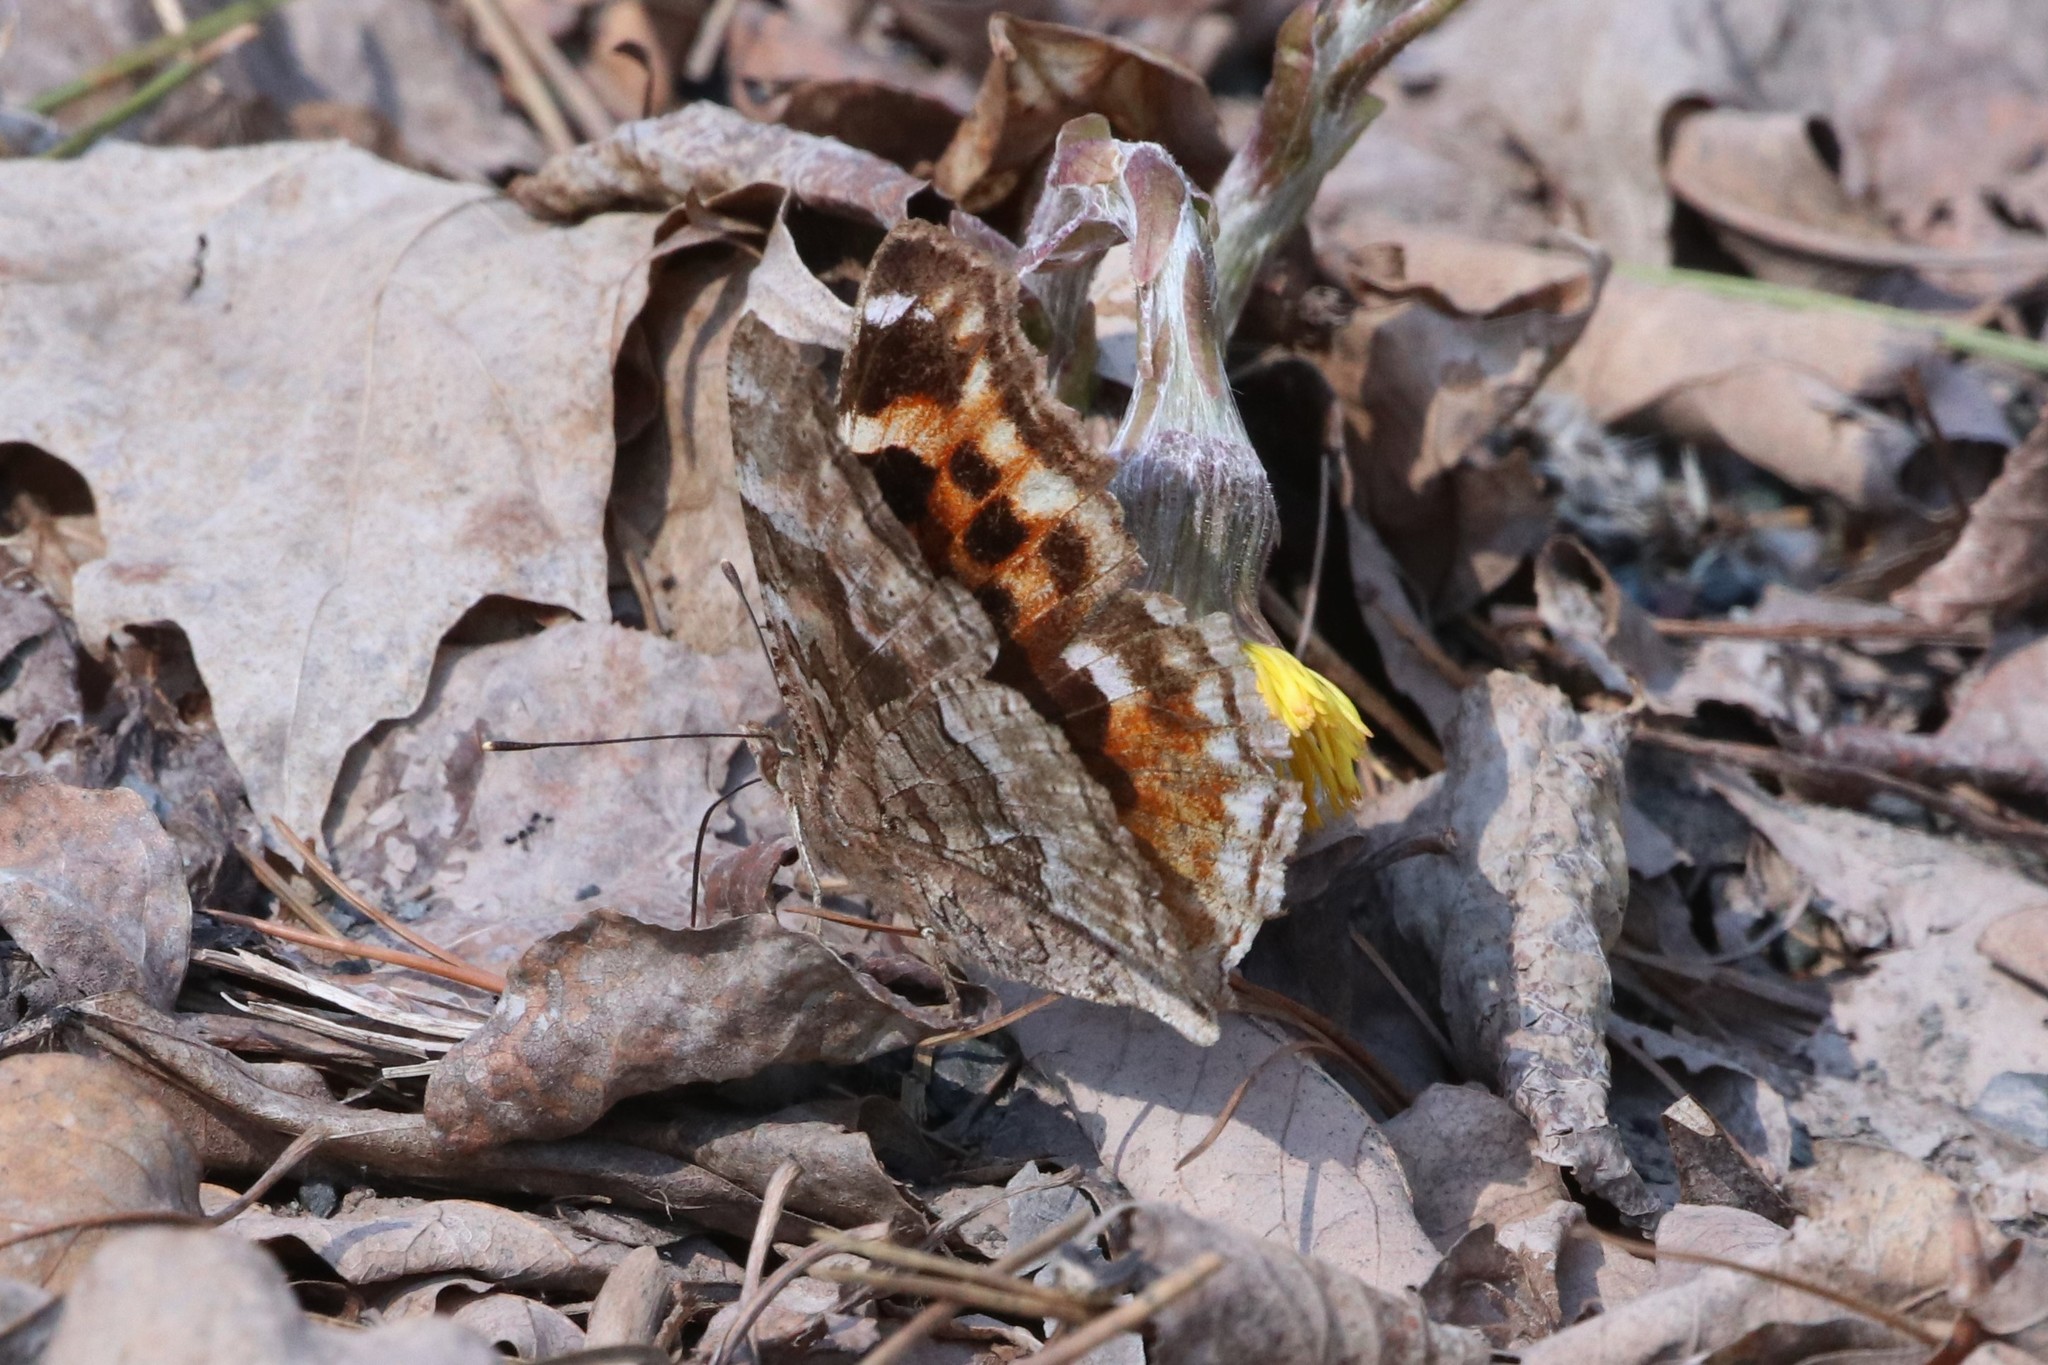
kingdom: Animalia
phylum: Arthropoda
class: Insecta
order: Lepidoptera
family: Nymphalidae
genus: Polygonia
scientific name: Polygonia vaualbum
